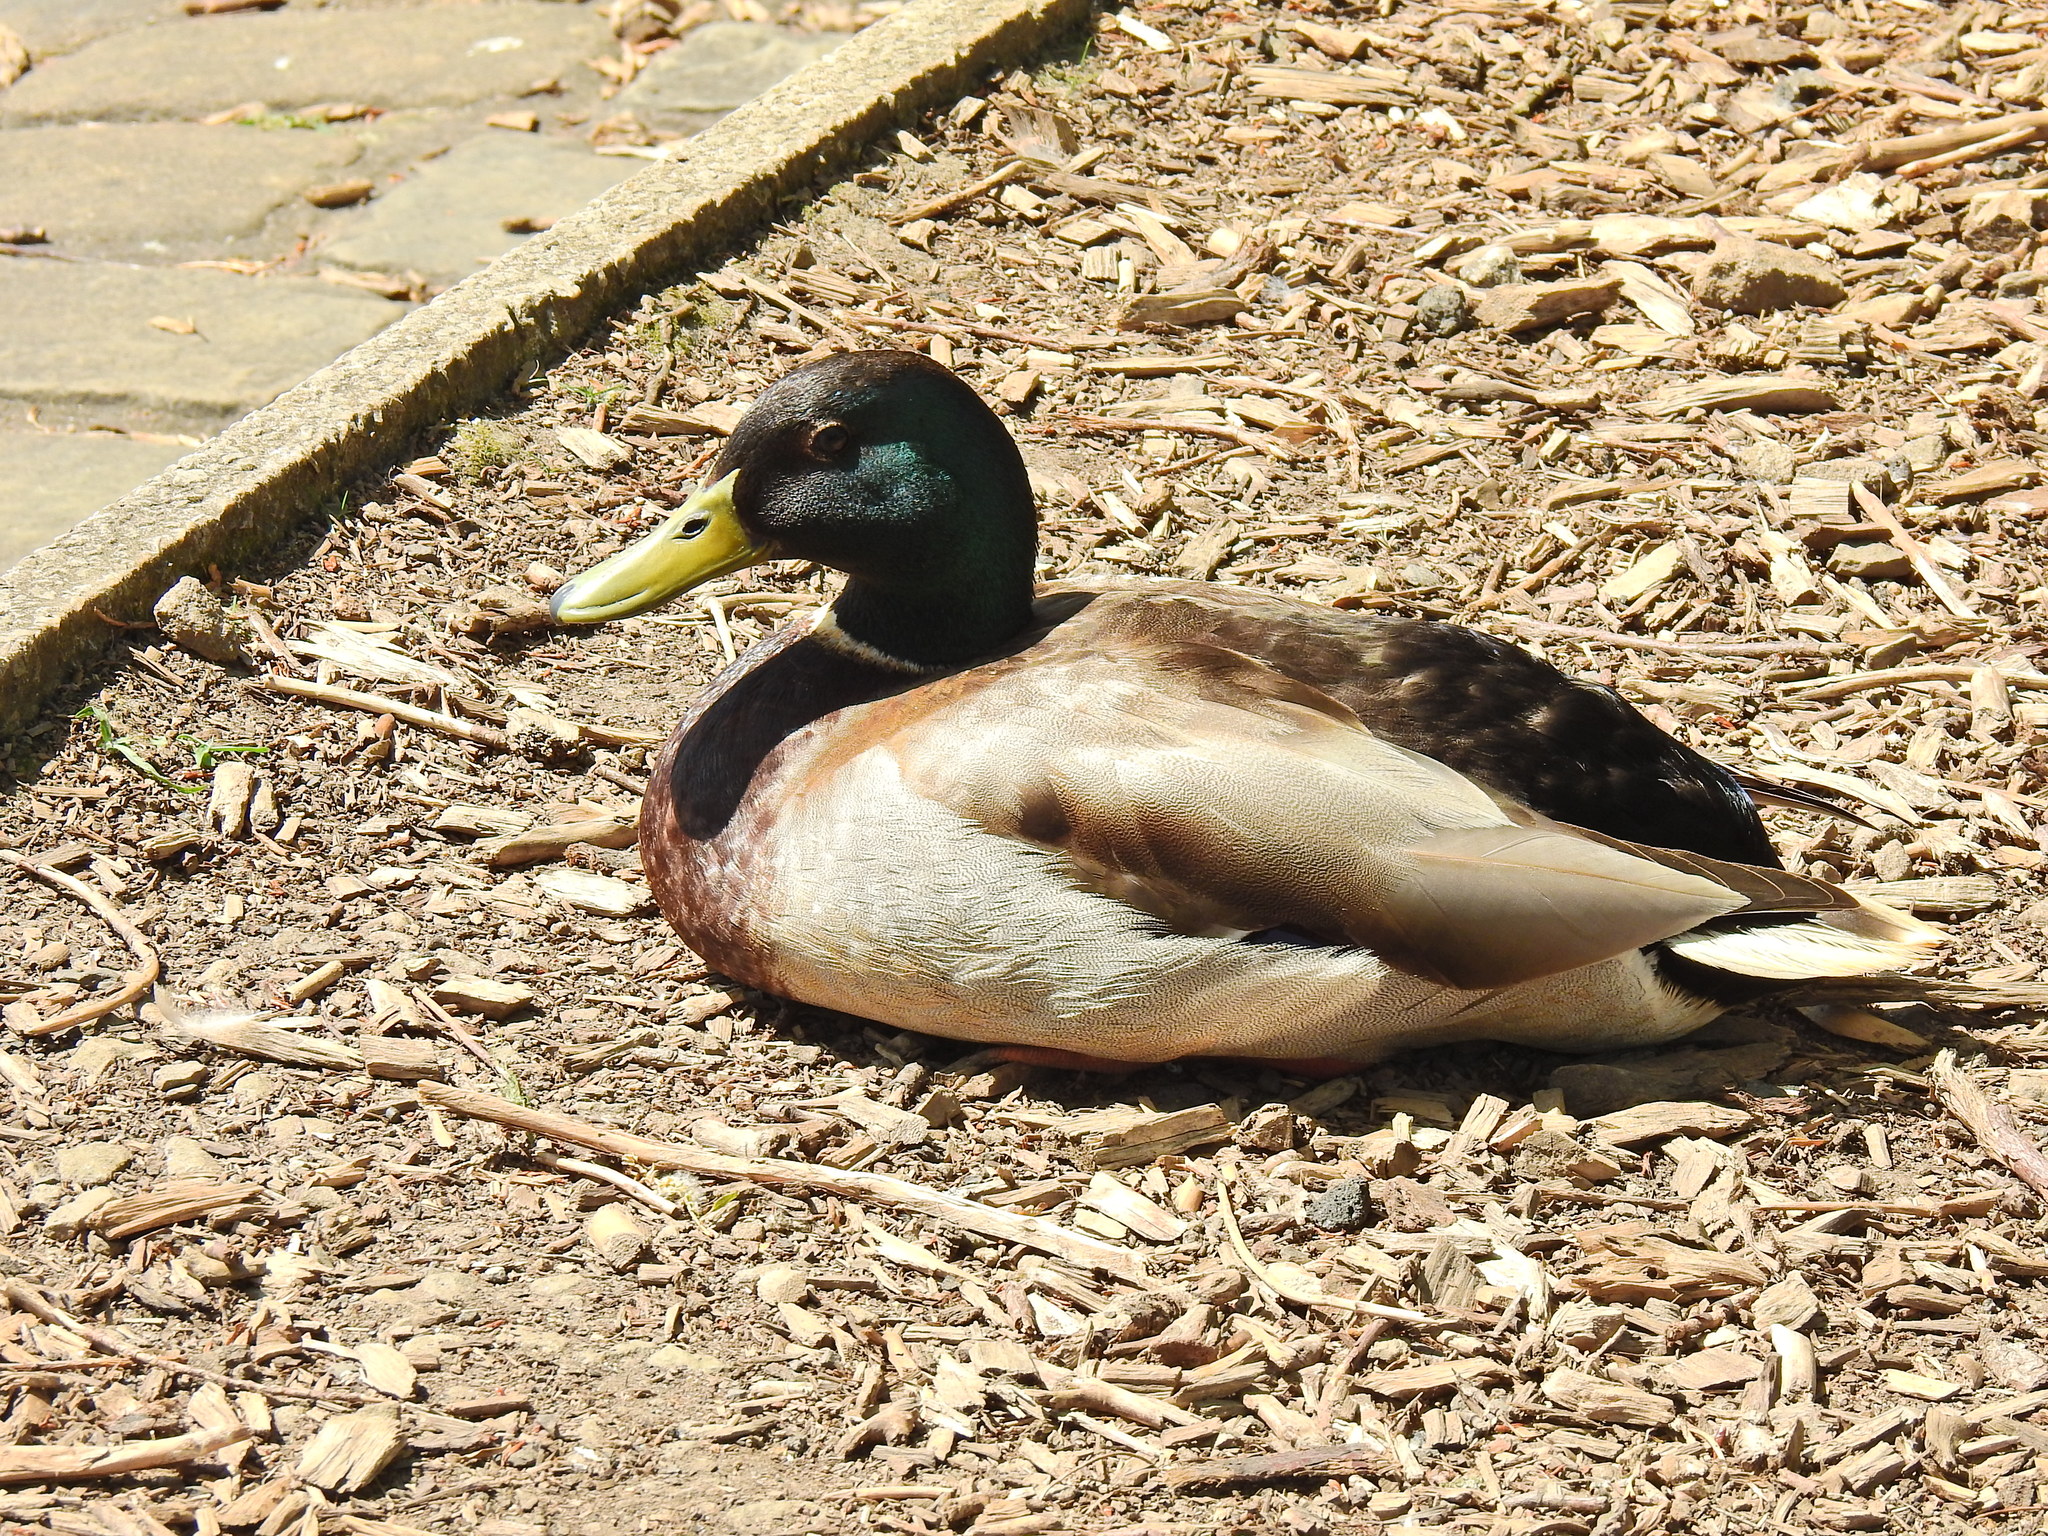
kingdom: Animalia
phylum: Chordata
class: Aves
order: Anseriformes
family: Anatidae
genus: Anas
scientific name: Anas platyrhynchos
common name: Mallard
